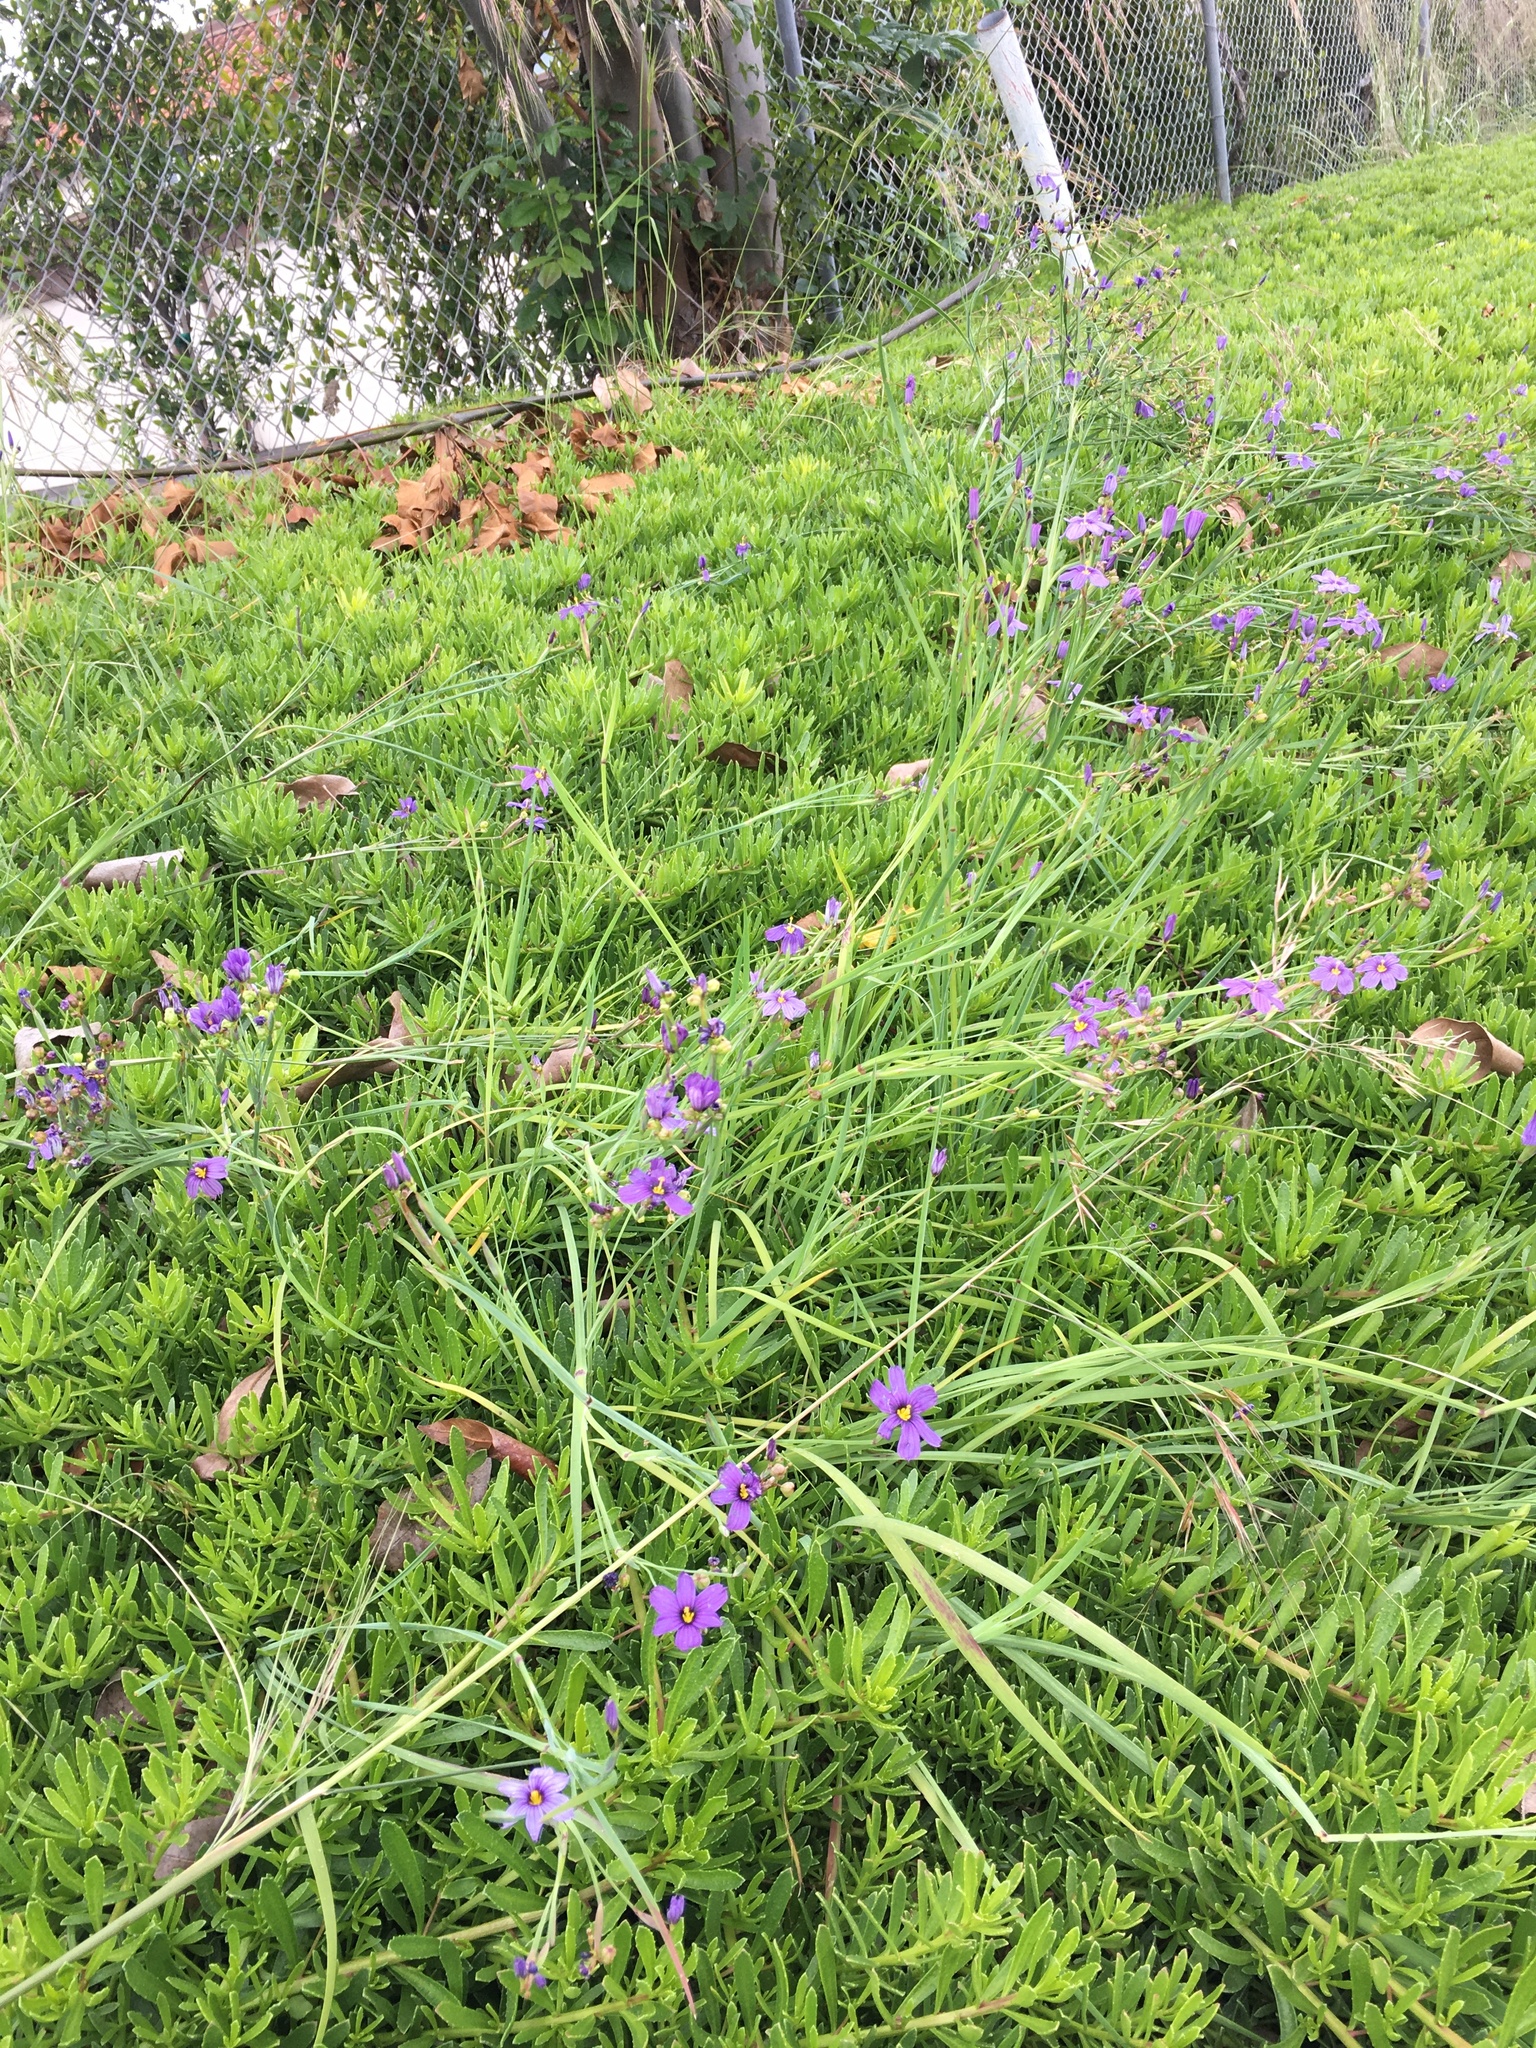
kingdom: Plantae
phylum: Tracheophyta
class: Liliopsida
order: Asparagales
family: Iridaceae
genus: Sisyrinchium
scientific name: Sisyrinchium bellum
